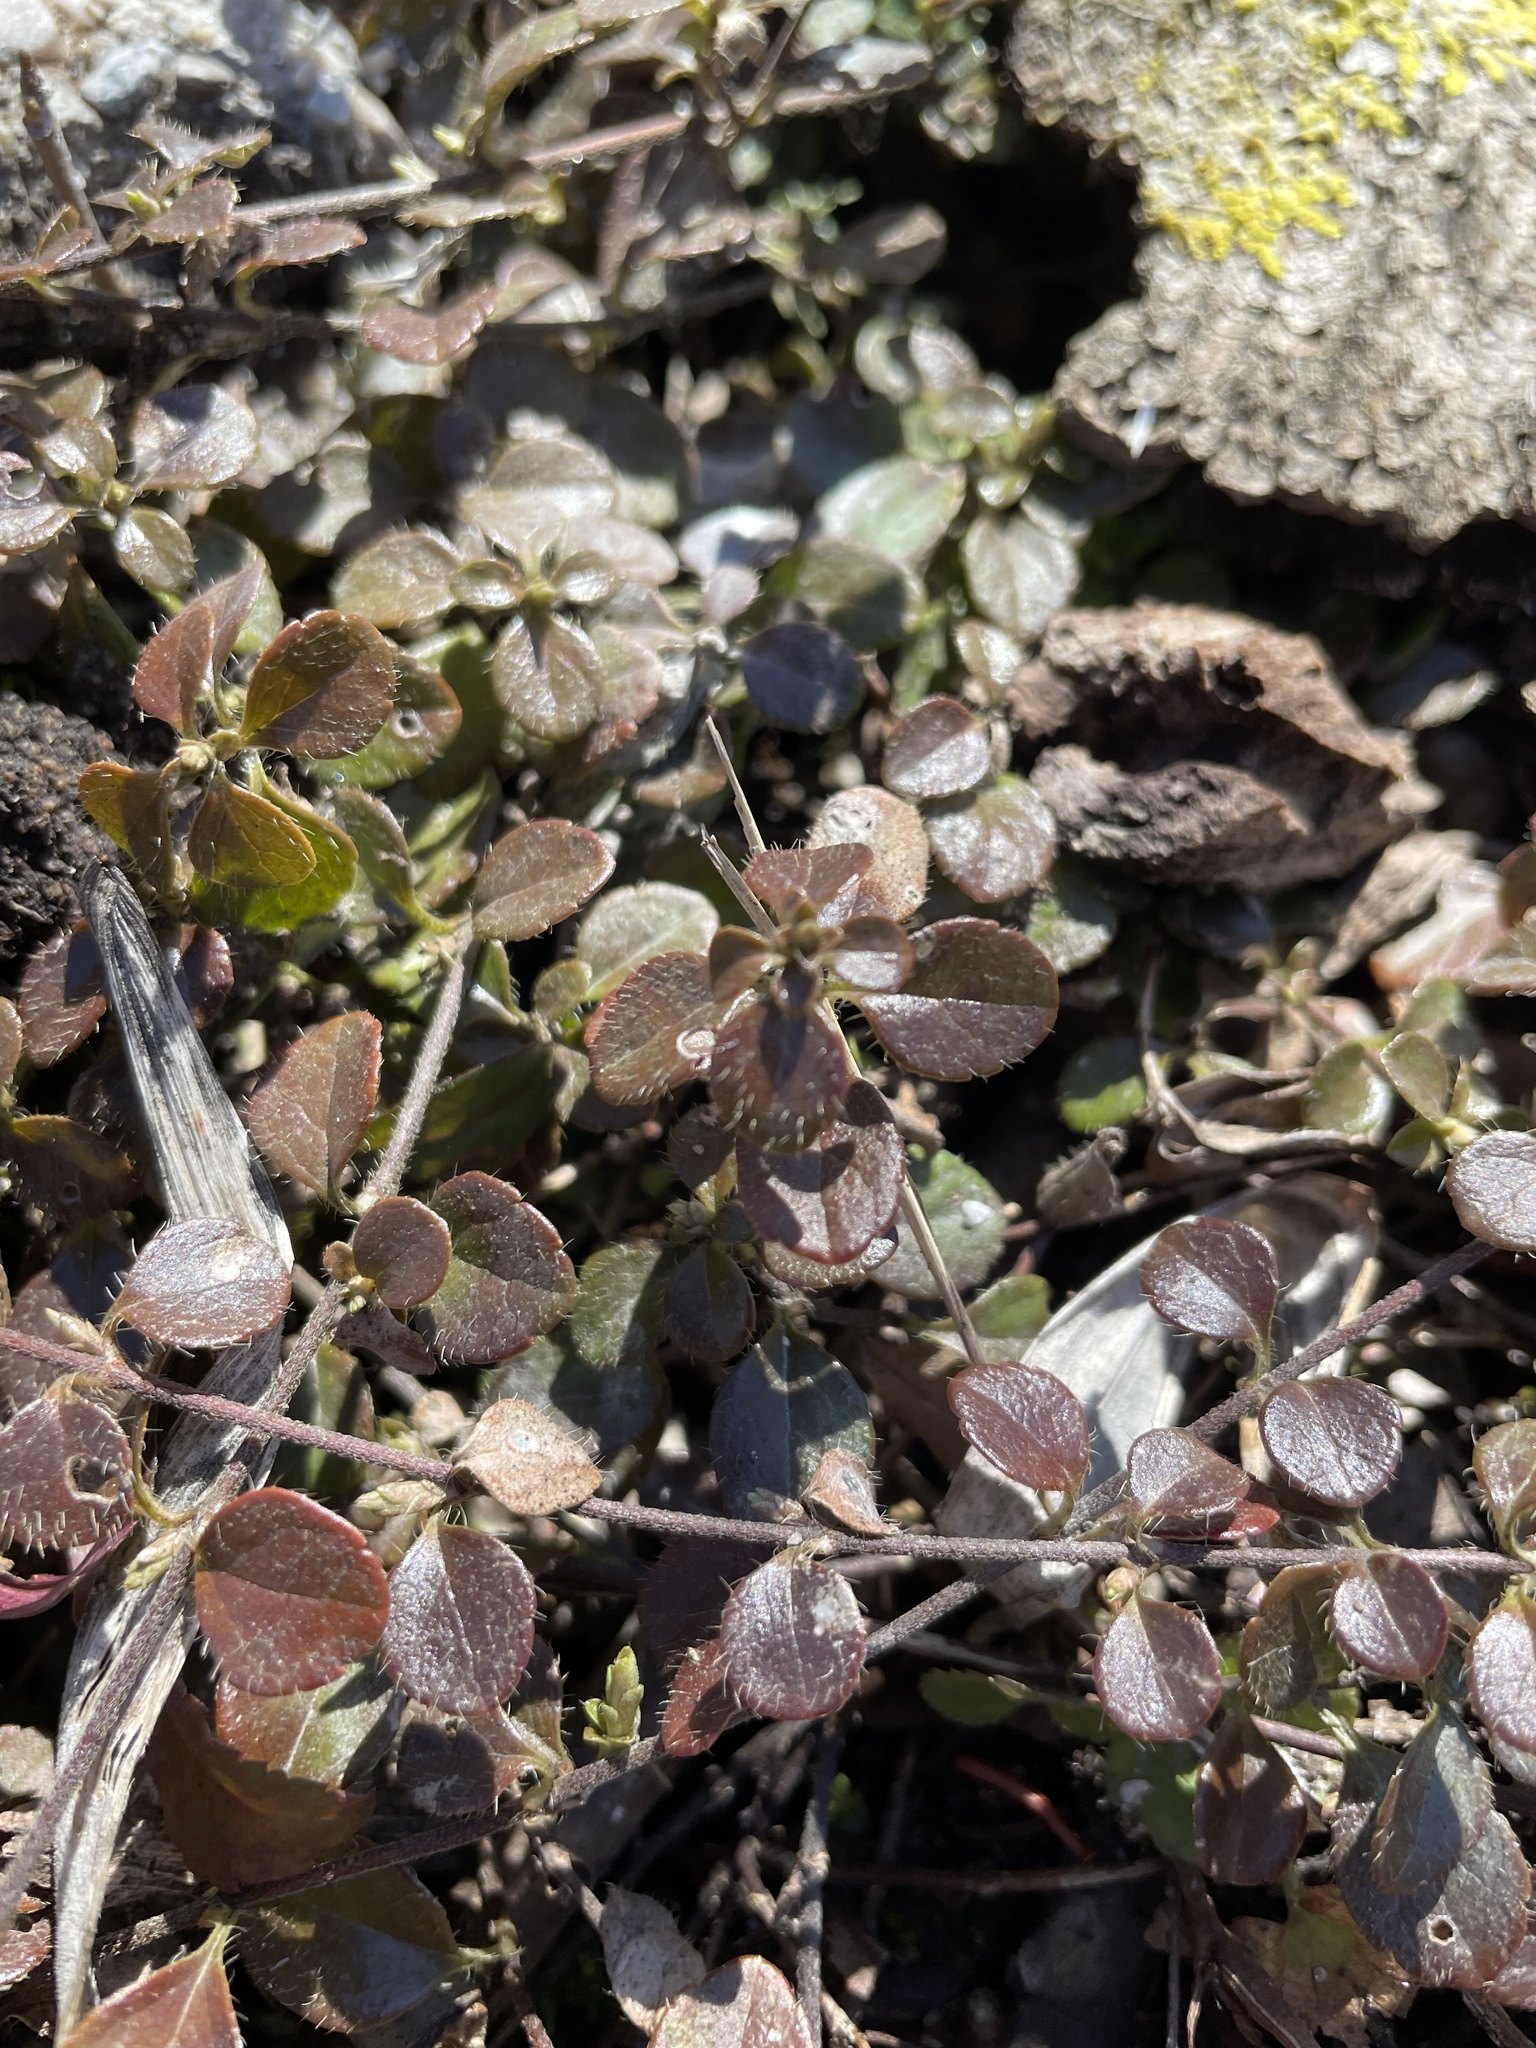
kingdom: Plantae
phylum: Tracheophyta
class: Magnoliopsida
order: Dipsacales
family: Caprifoliaceae
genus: Linnaea
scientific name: Linnaea borealis
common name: Twinflower
